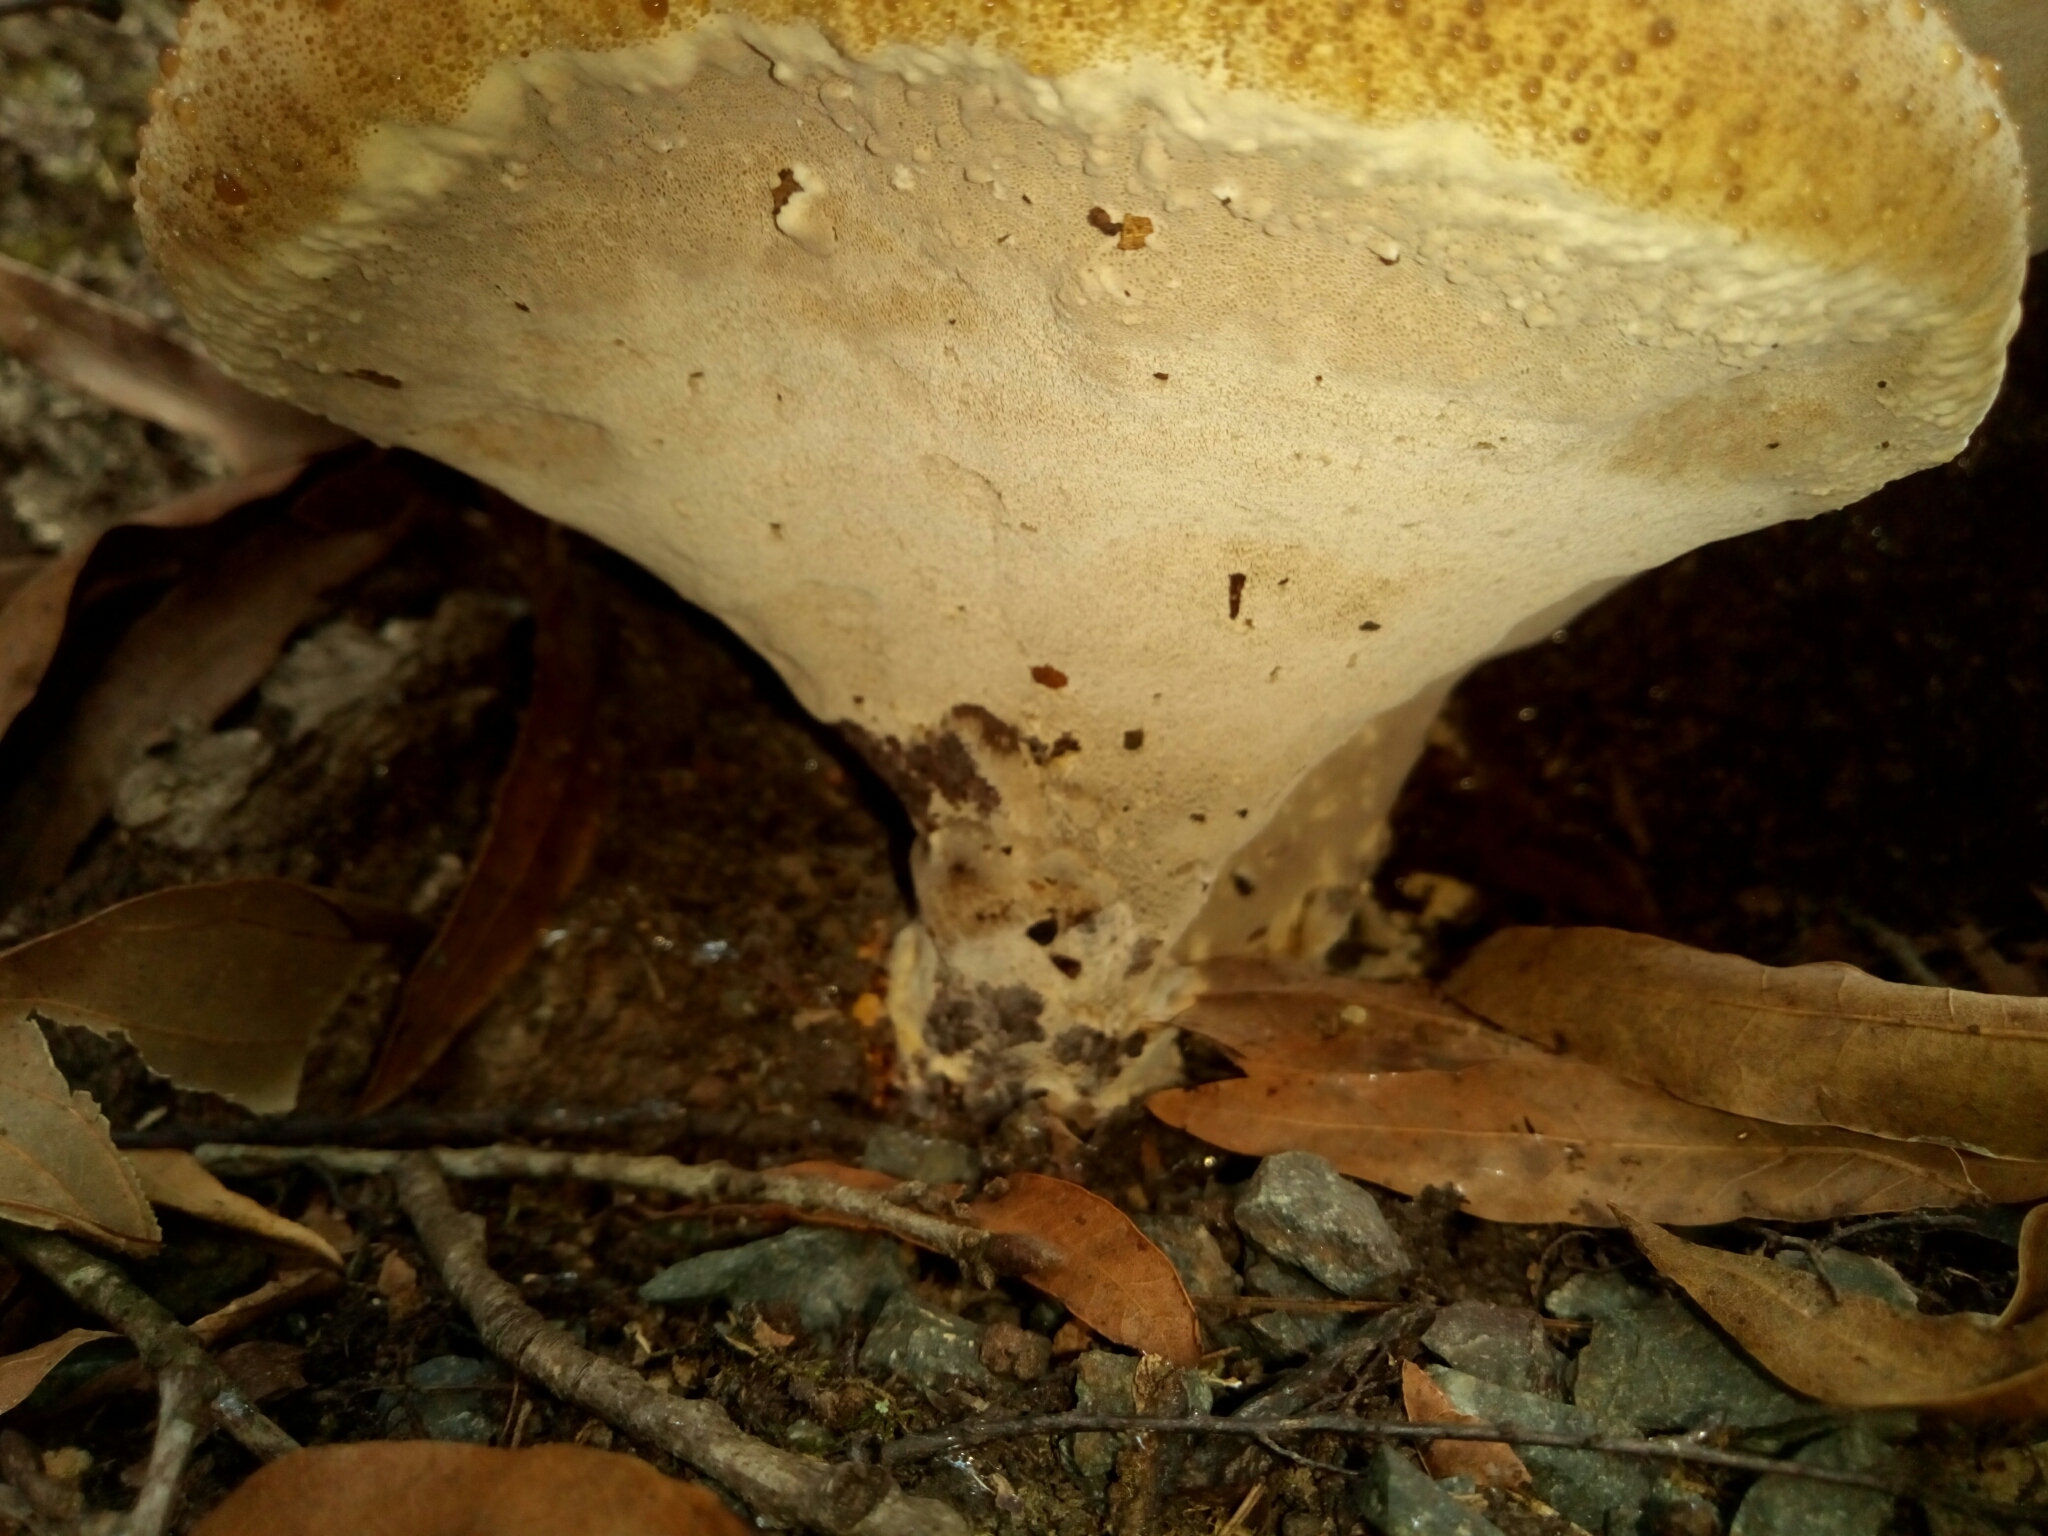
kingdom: Fungi
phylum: Basidiomycota
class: Agaricomycetes
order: Hymenochaetales
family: Hymenochaetaceae
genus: Pseudoinonotus
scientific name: Pseudoinonotus dryadeus
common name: Oak bracket
